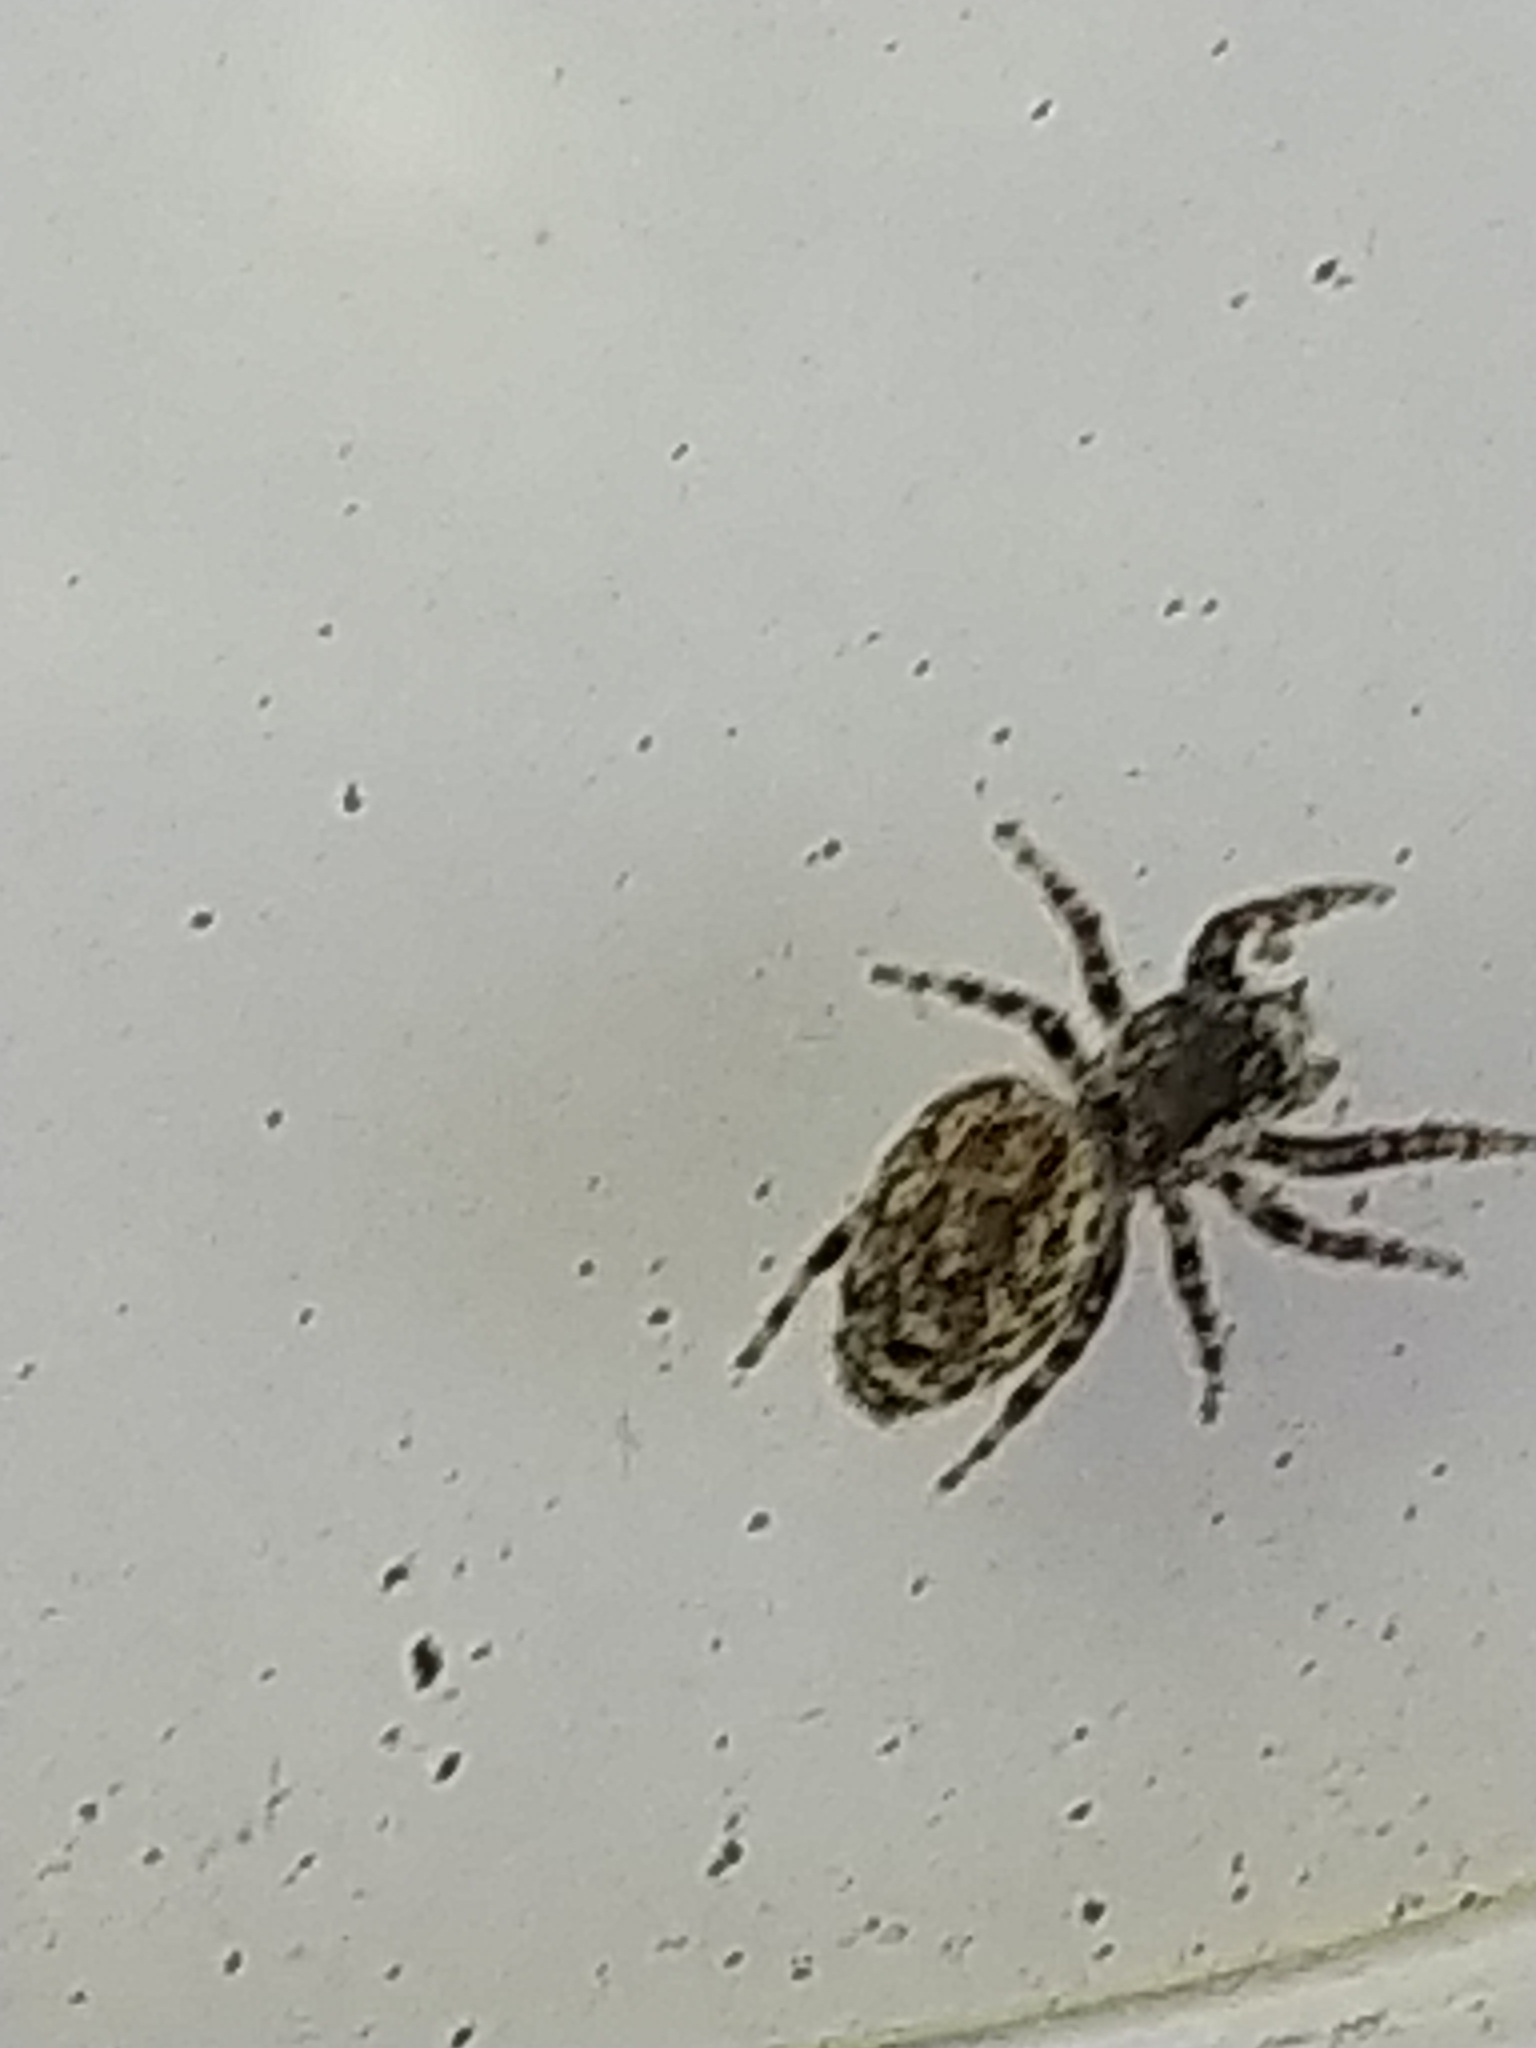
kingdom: Animalia
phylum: Arthropoda
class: Arachnida
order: Araneae
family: Salticidae
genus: Pelegrina
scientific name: Pelegrina galathea
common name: Jumping spiders
